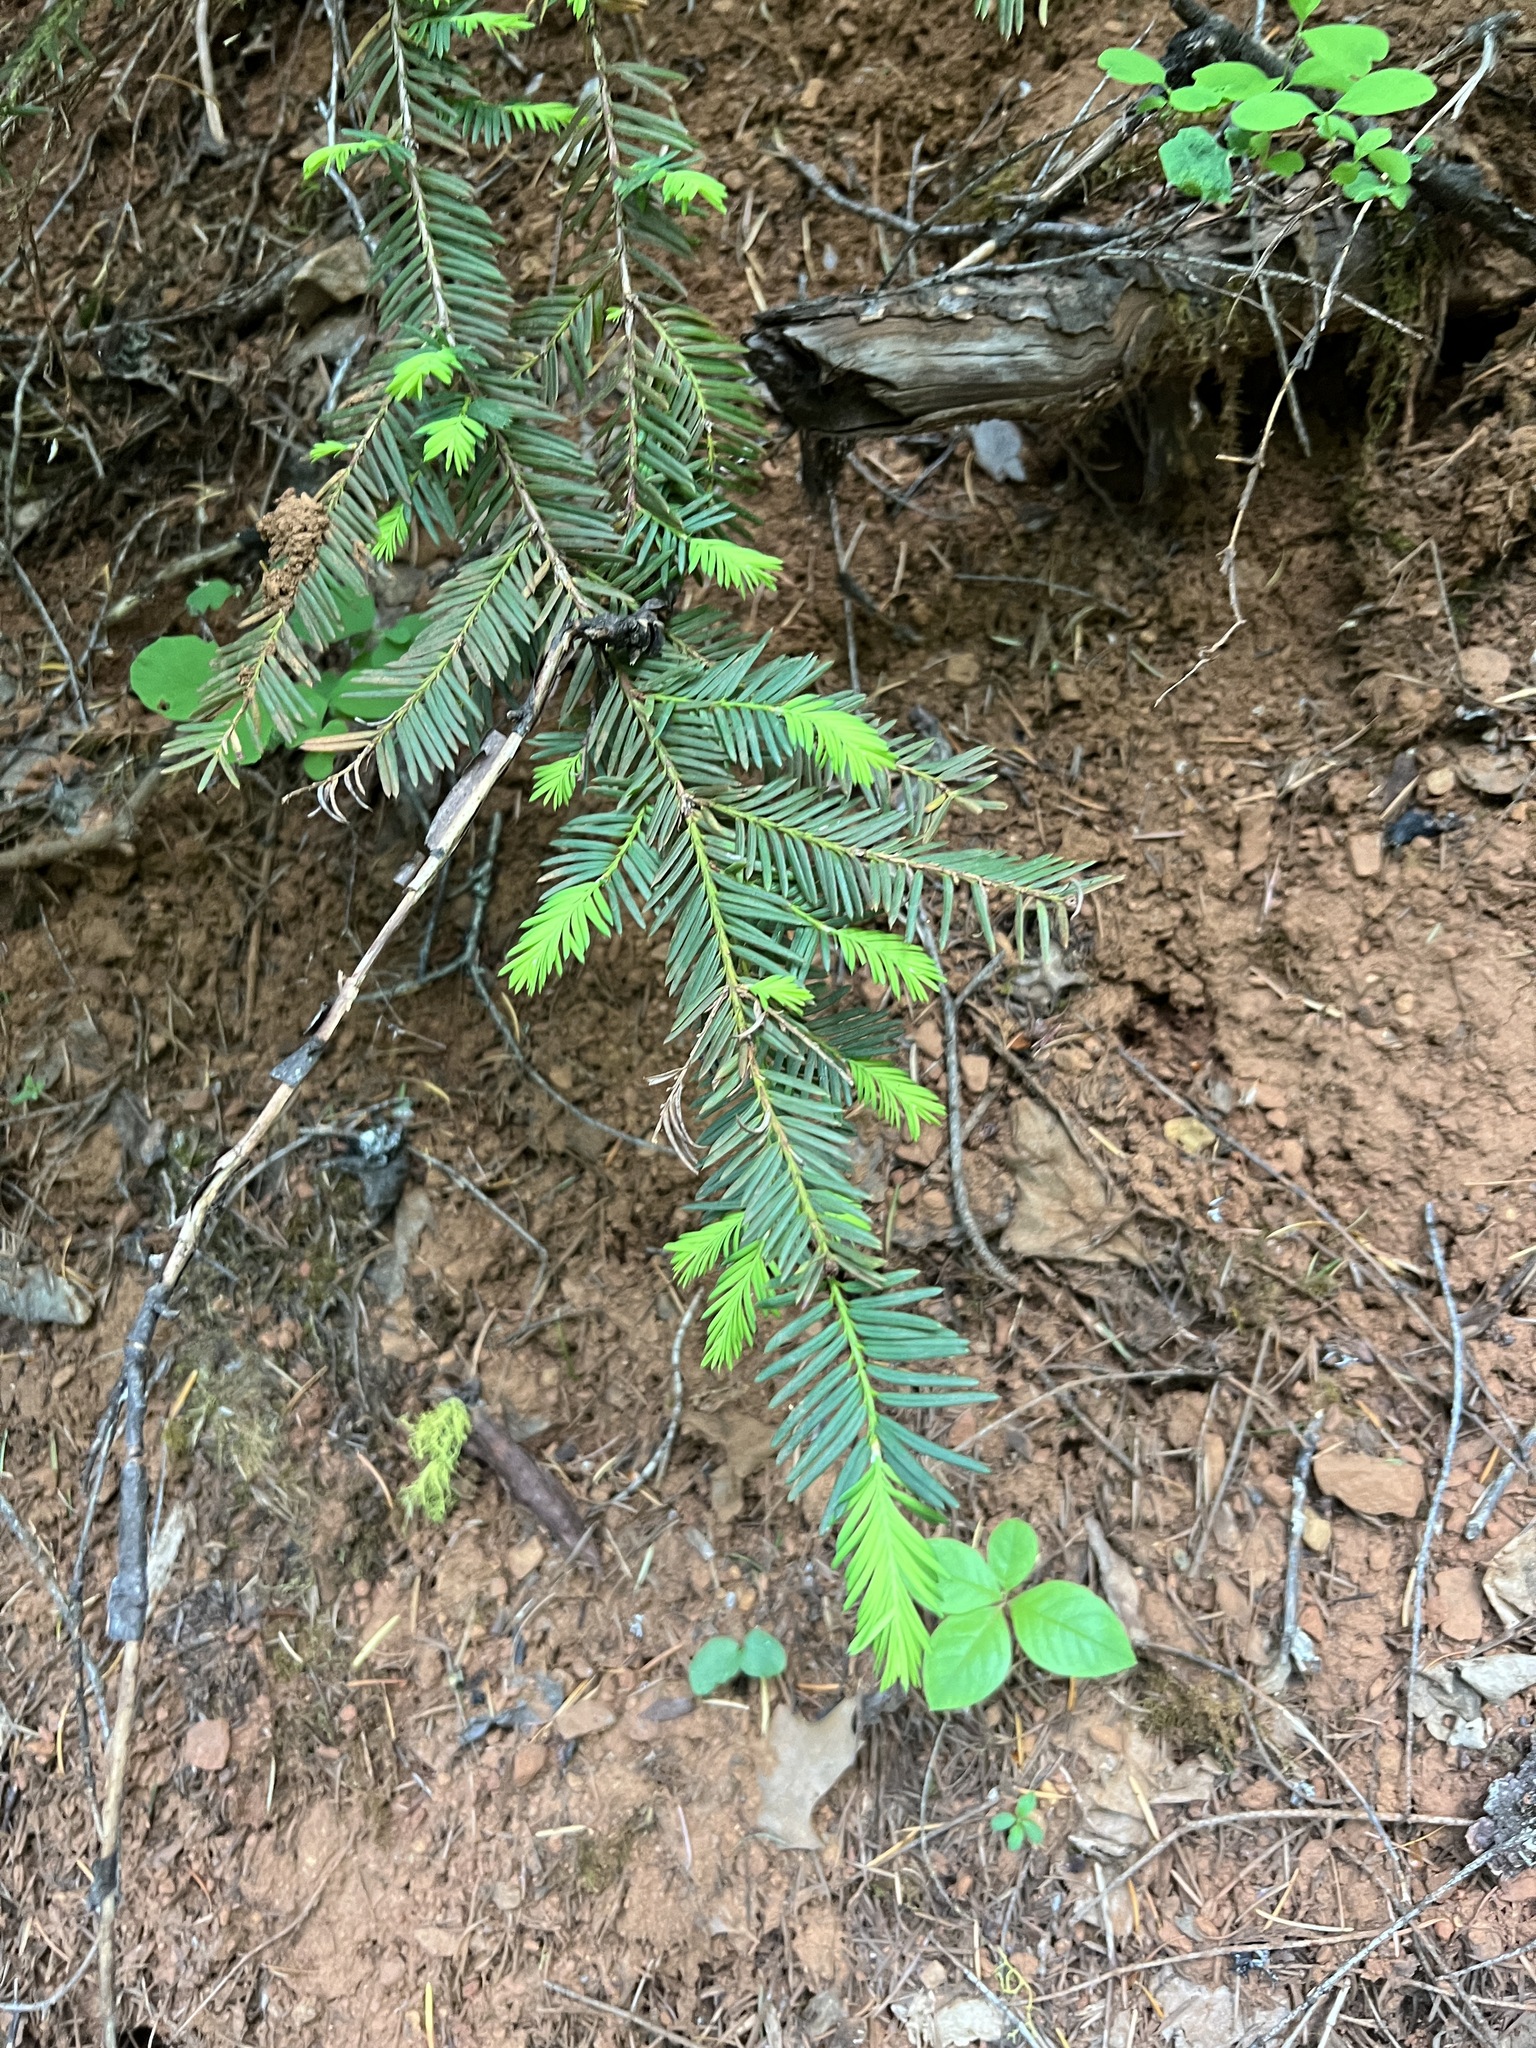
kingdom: Plantae
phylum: Tracheophyta
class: Pinopsida
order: Pinales
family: Taxaceae
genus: Taxus
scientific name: Taxus brevifolia
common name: Pacific yew
